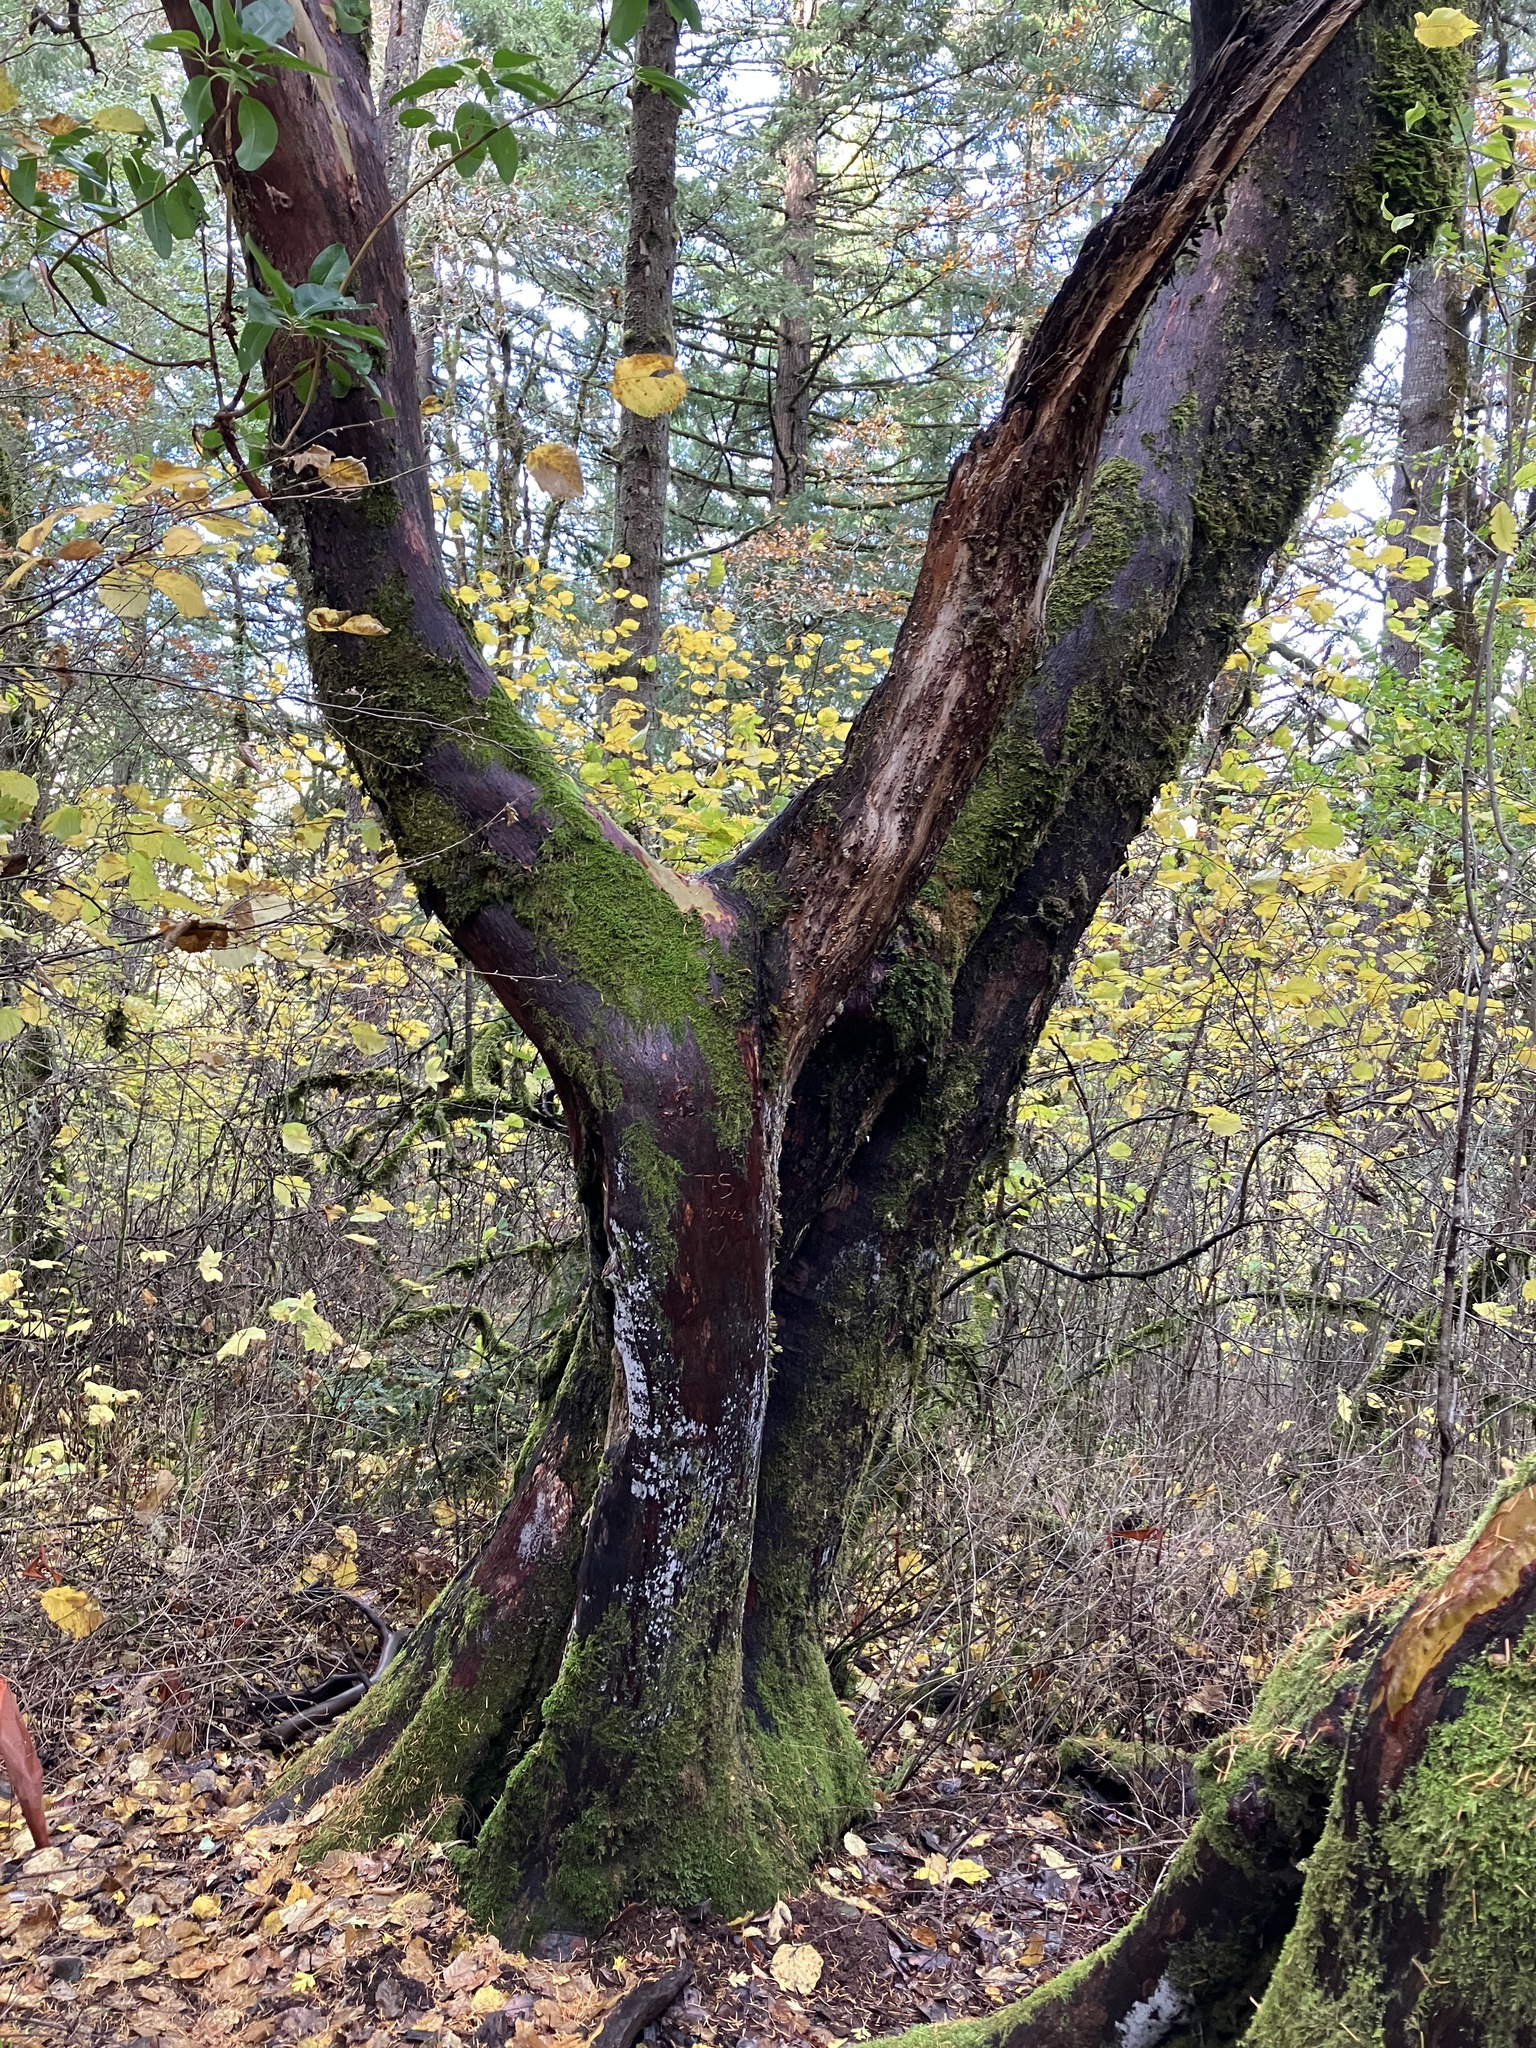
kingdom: Plantae
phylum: Tracheophyta
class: Magnoliopsida
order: Ericales
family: Ericaceae
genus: Arbutus
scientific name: Arbutus menziesii
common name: Pacific madrone
